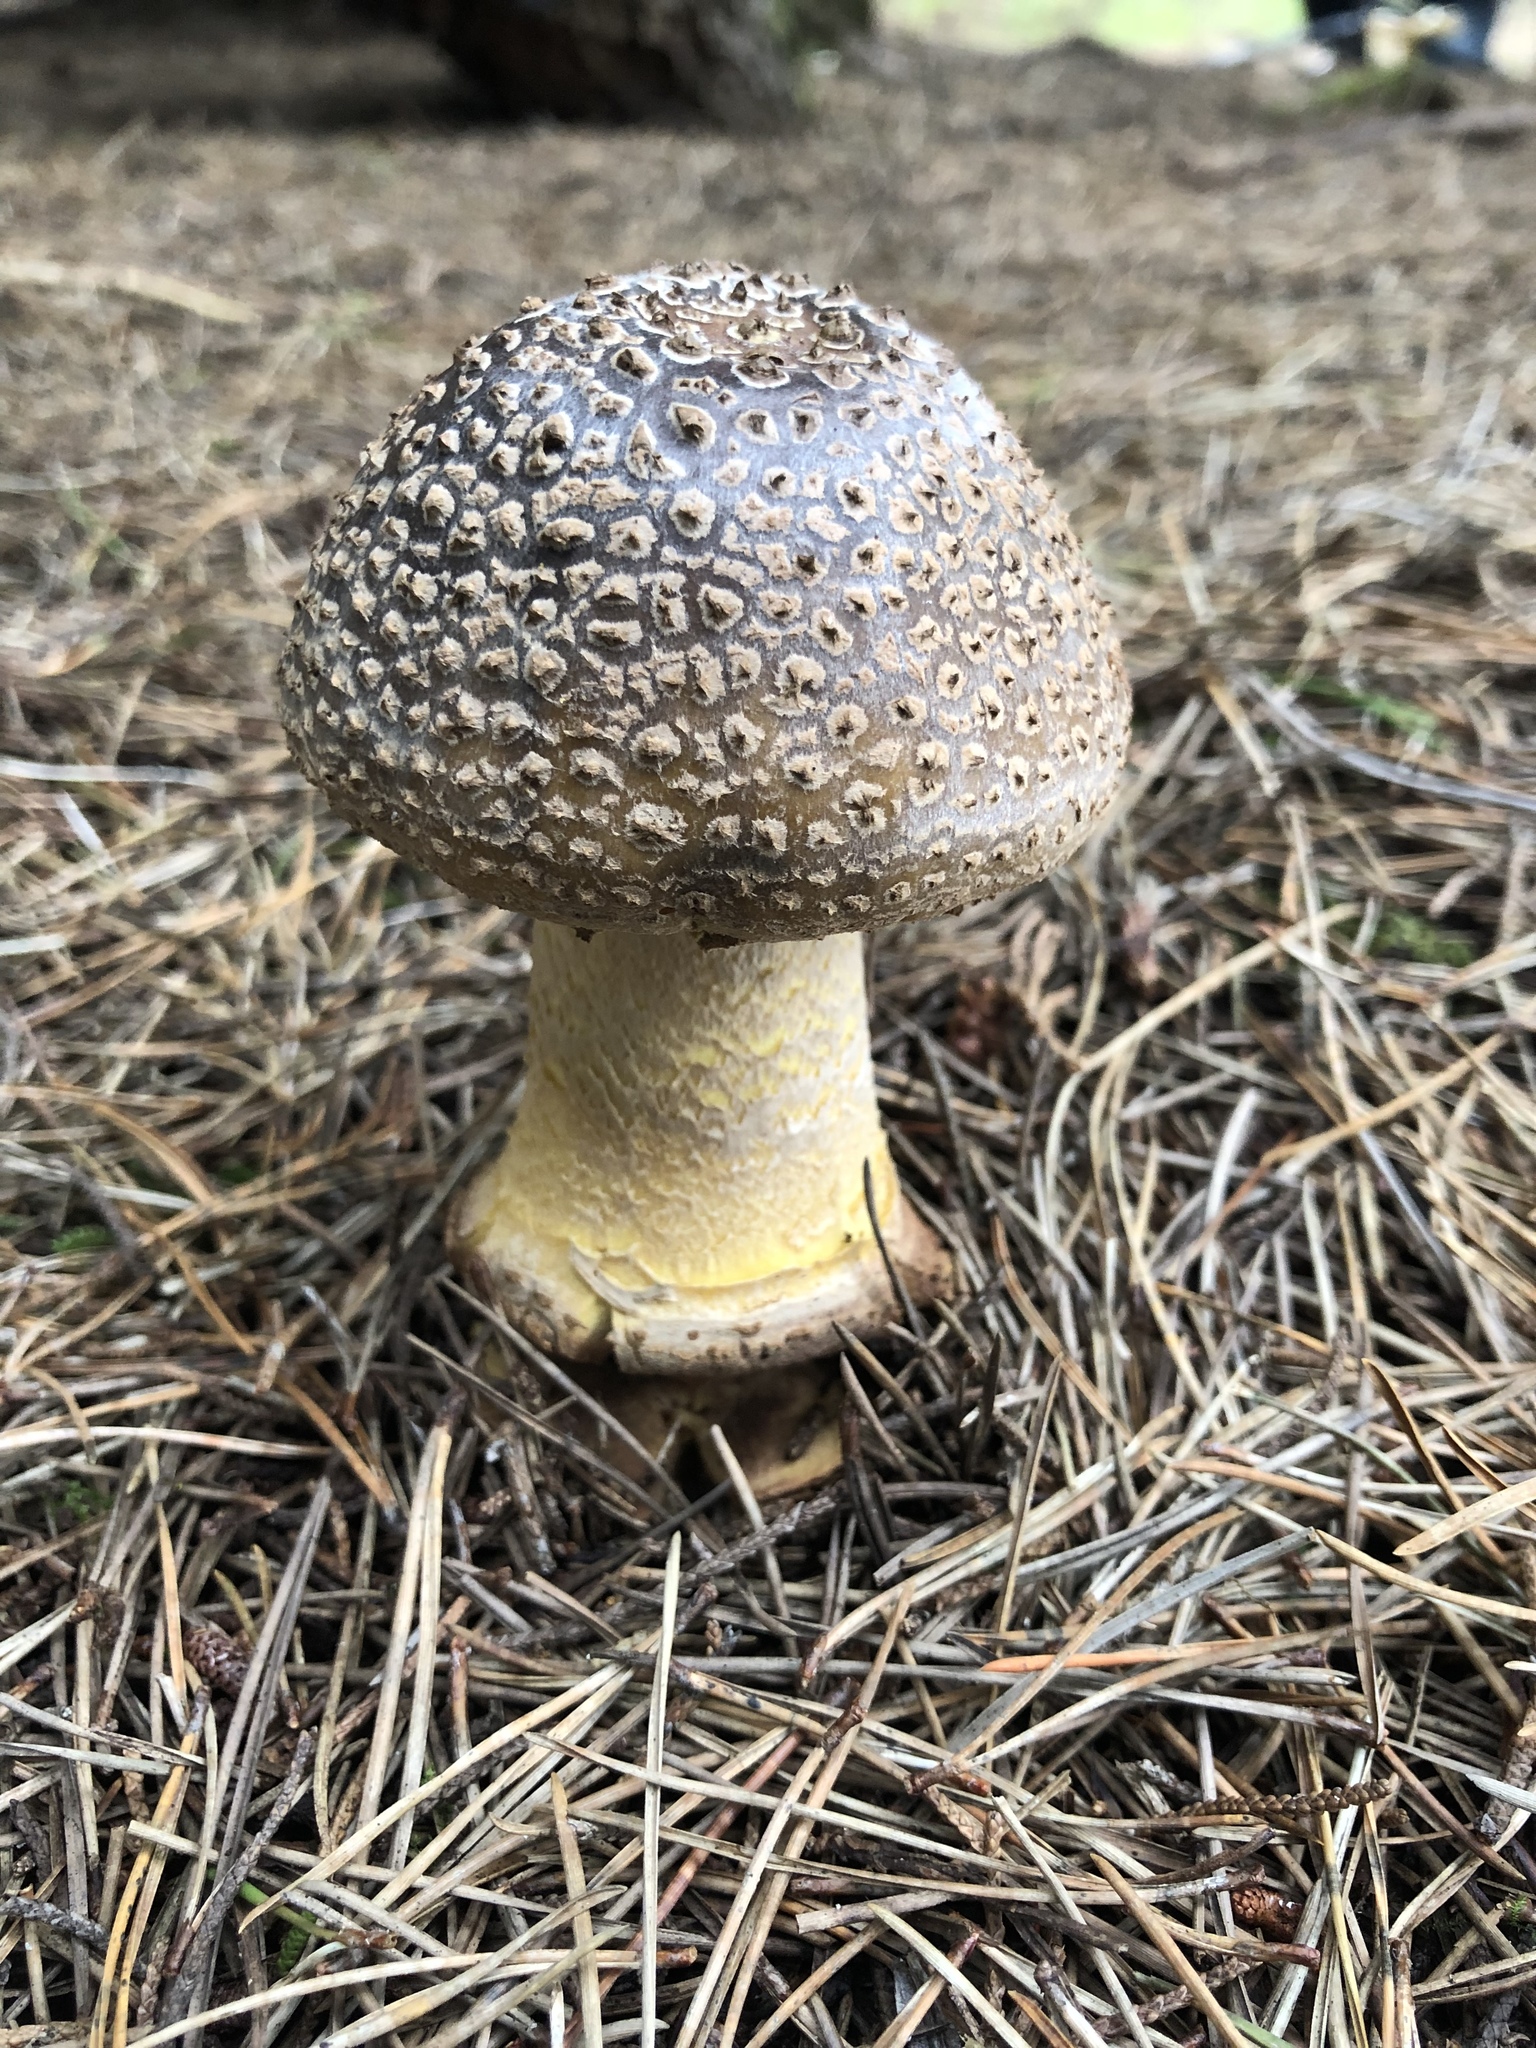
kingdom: Fungi
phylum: Basidiomycota
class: Agaricomycetes
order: Agaricales
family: Amanitaceae
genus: Amanita
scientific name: Amanita augusta
